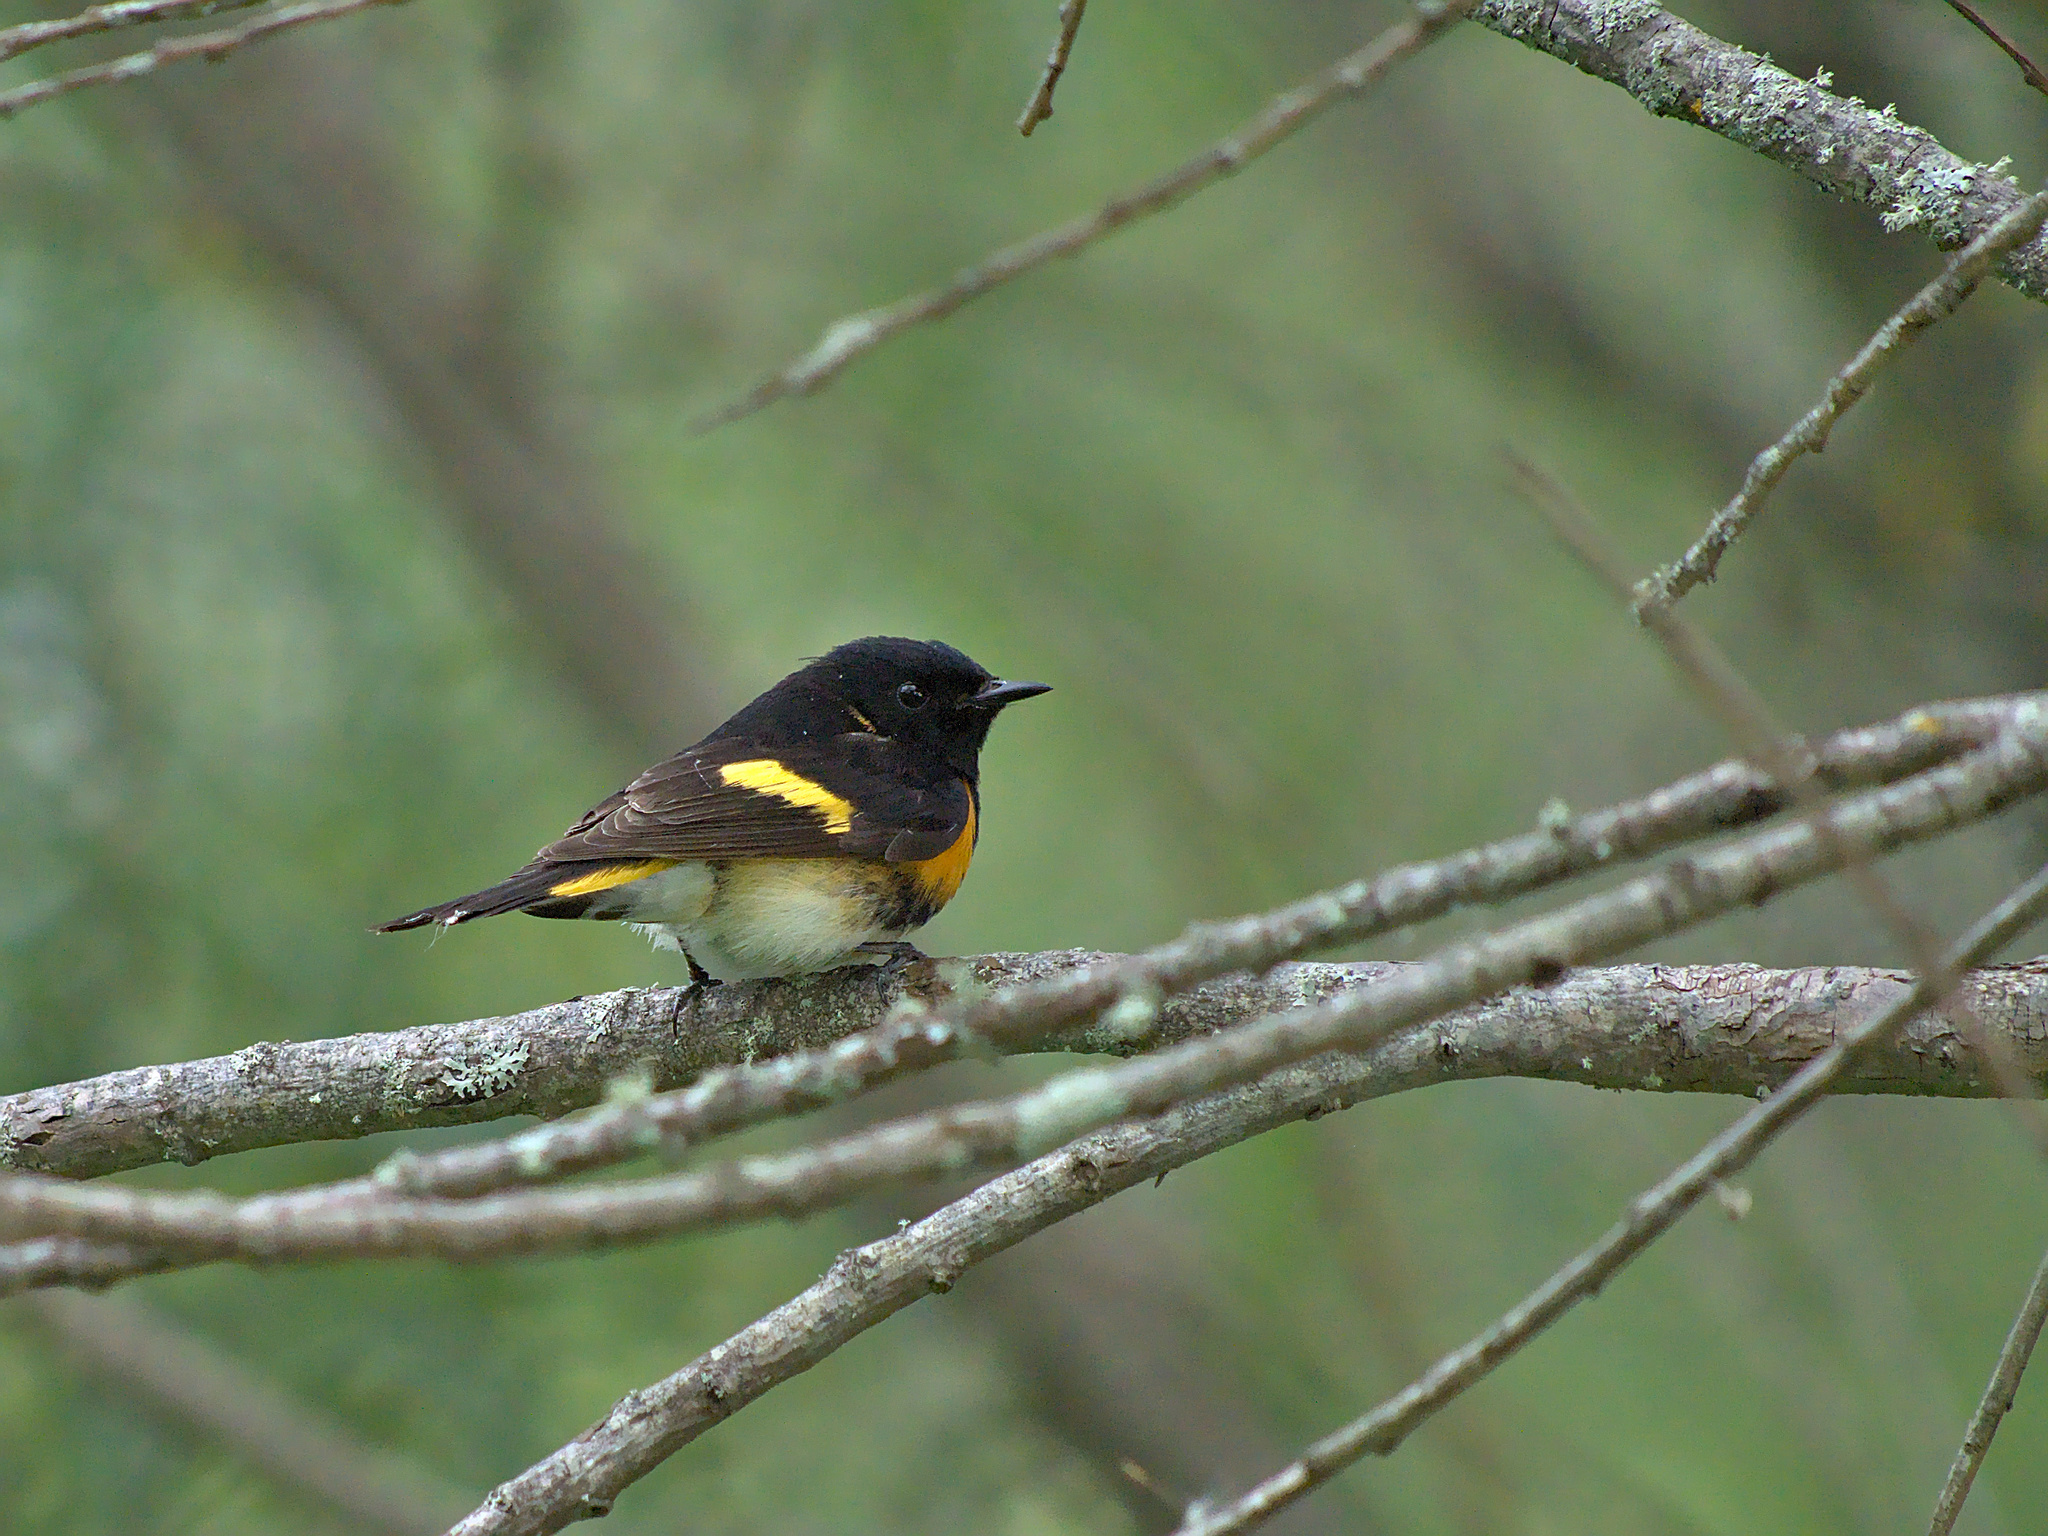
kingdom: Animalia
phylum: Chordata
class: Aves
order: Passeriformes
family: Parulidae
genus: Setophaga
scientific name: Setophaga ruticilla
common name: American redstart
